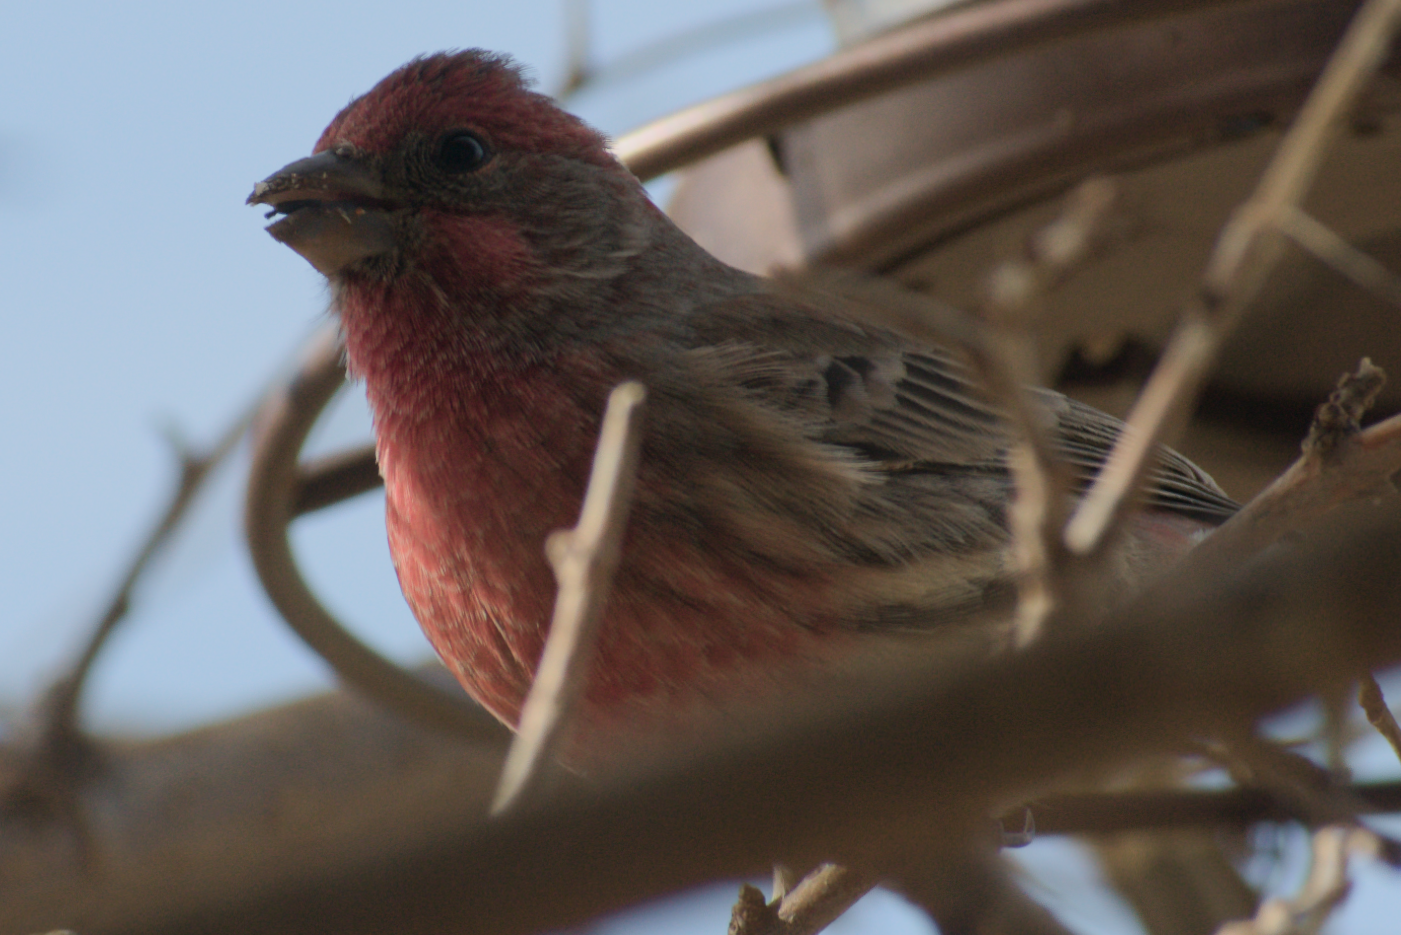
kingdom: Animalia
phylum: Chordata
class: Aves
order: Passeriformes
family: Fringillidae
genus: Haemorhous
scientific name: Haemorhous mexicanus
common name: House finch
